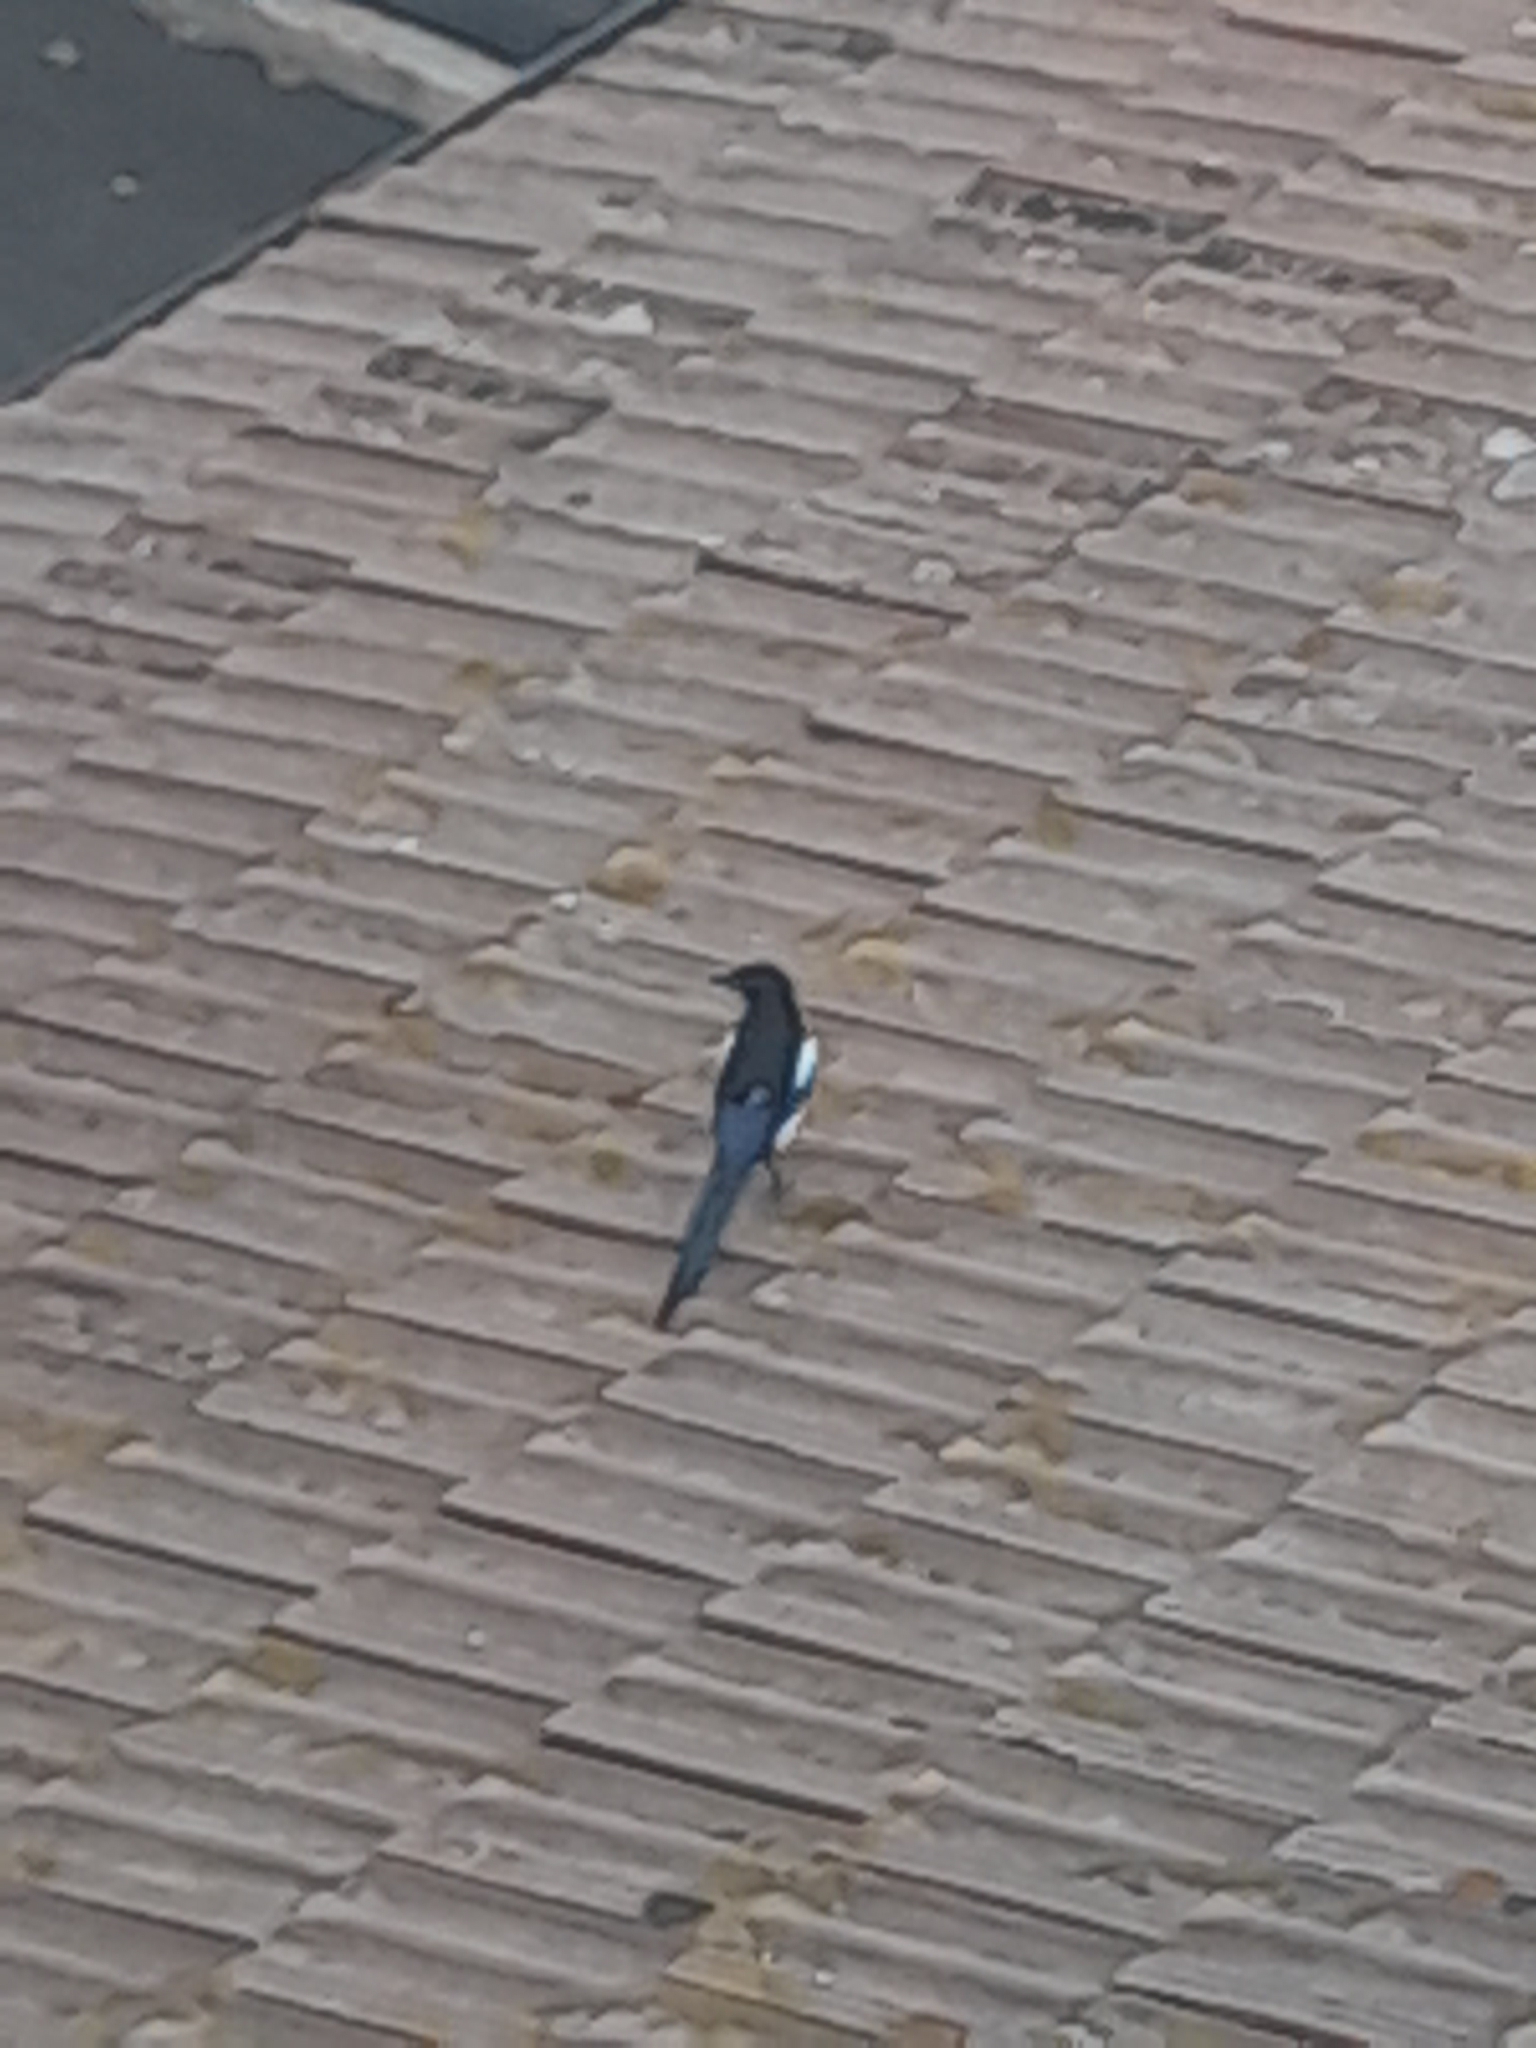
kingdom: Animalia
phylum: Chordata
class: Aves
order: Passeriformes
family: Corvidae
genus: Pica
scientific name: Pica pica
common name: Eurasian magpie
